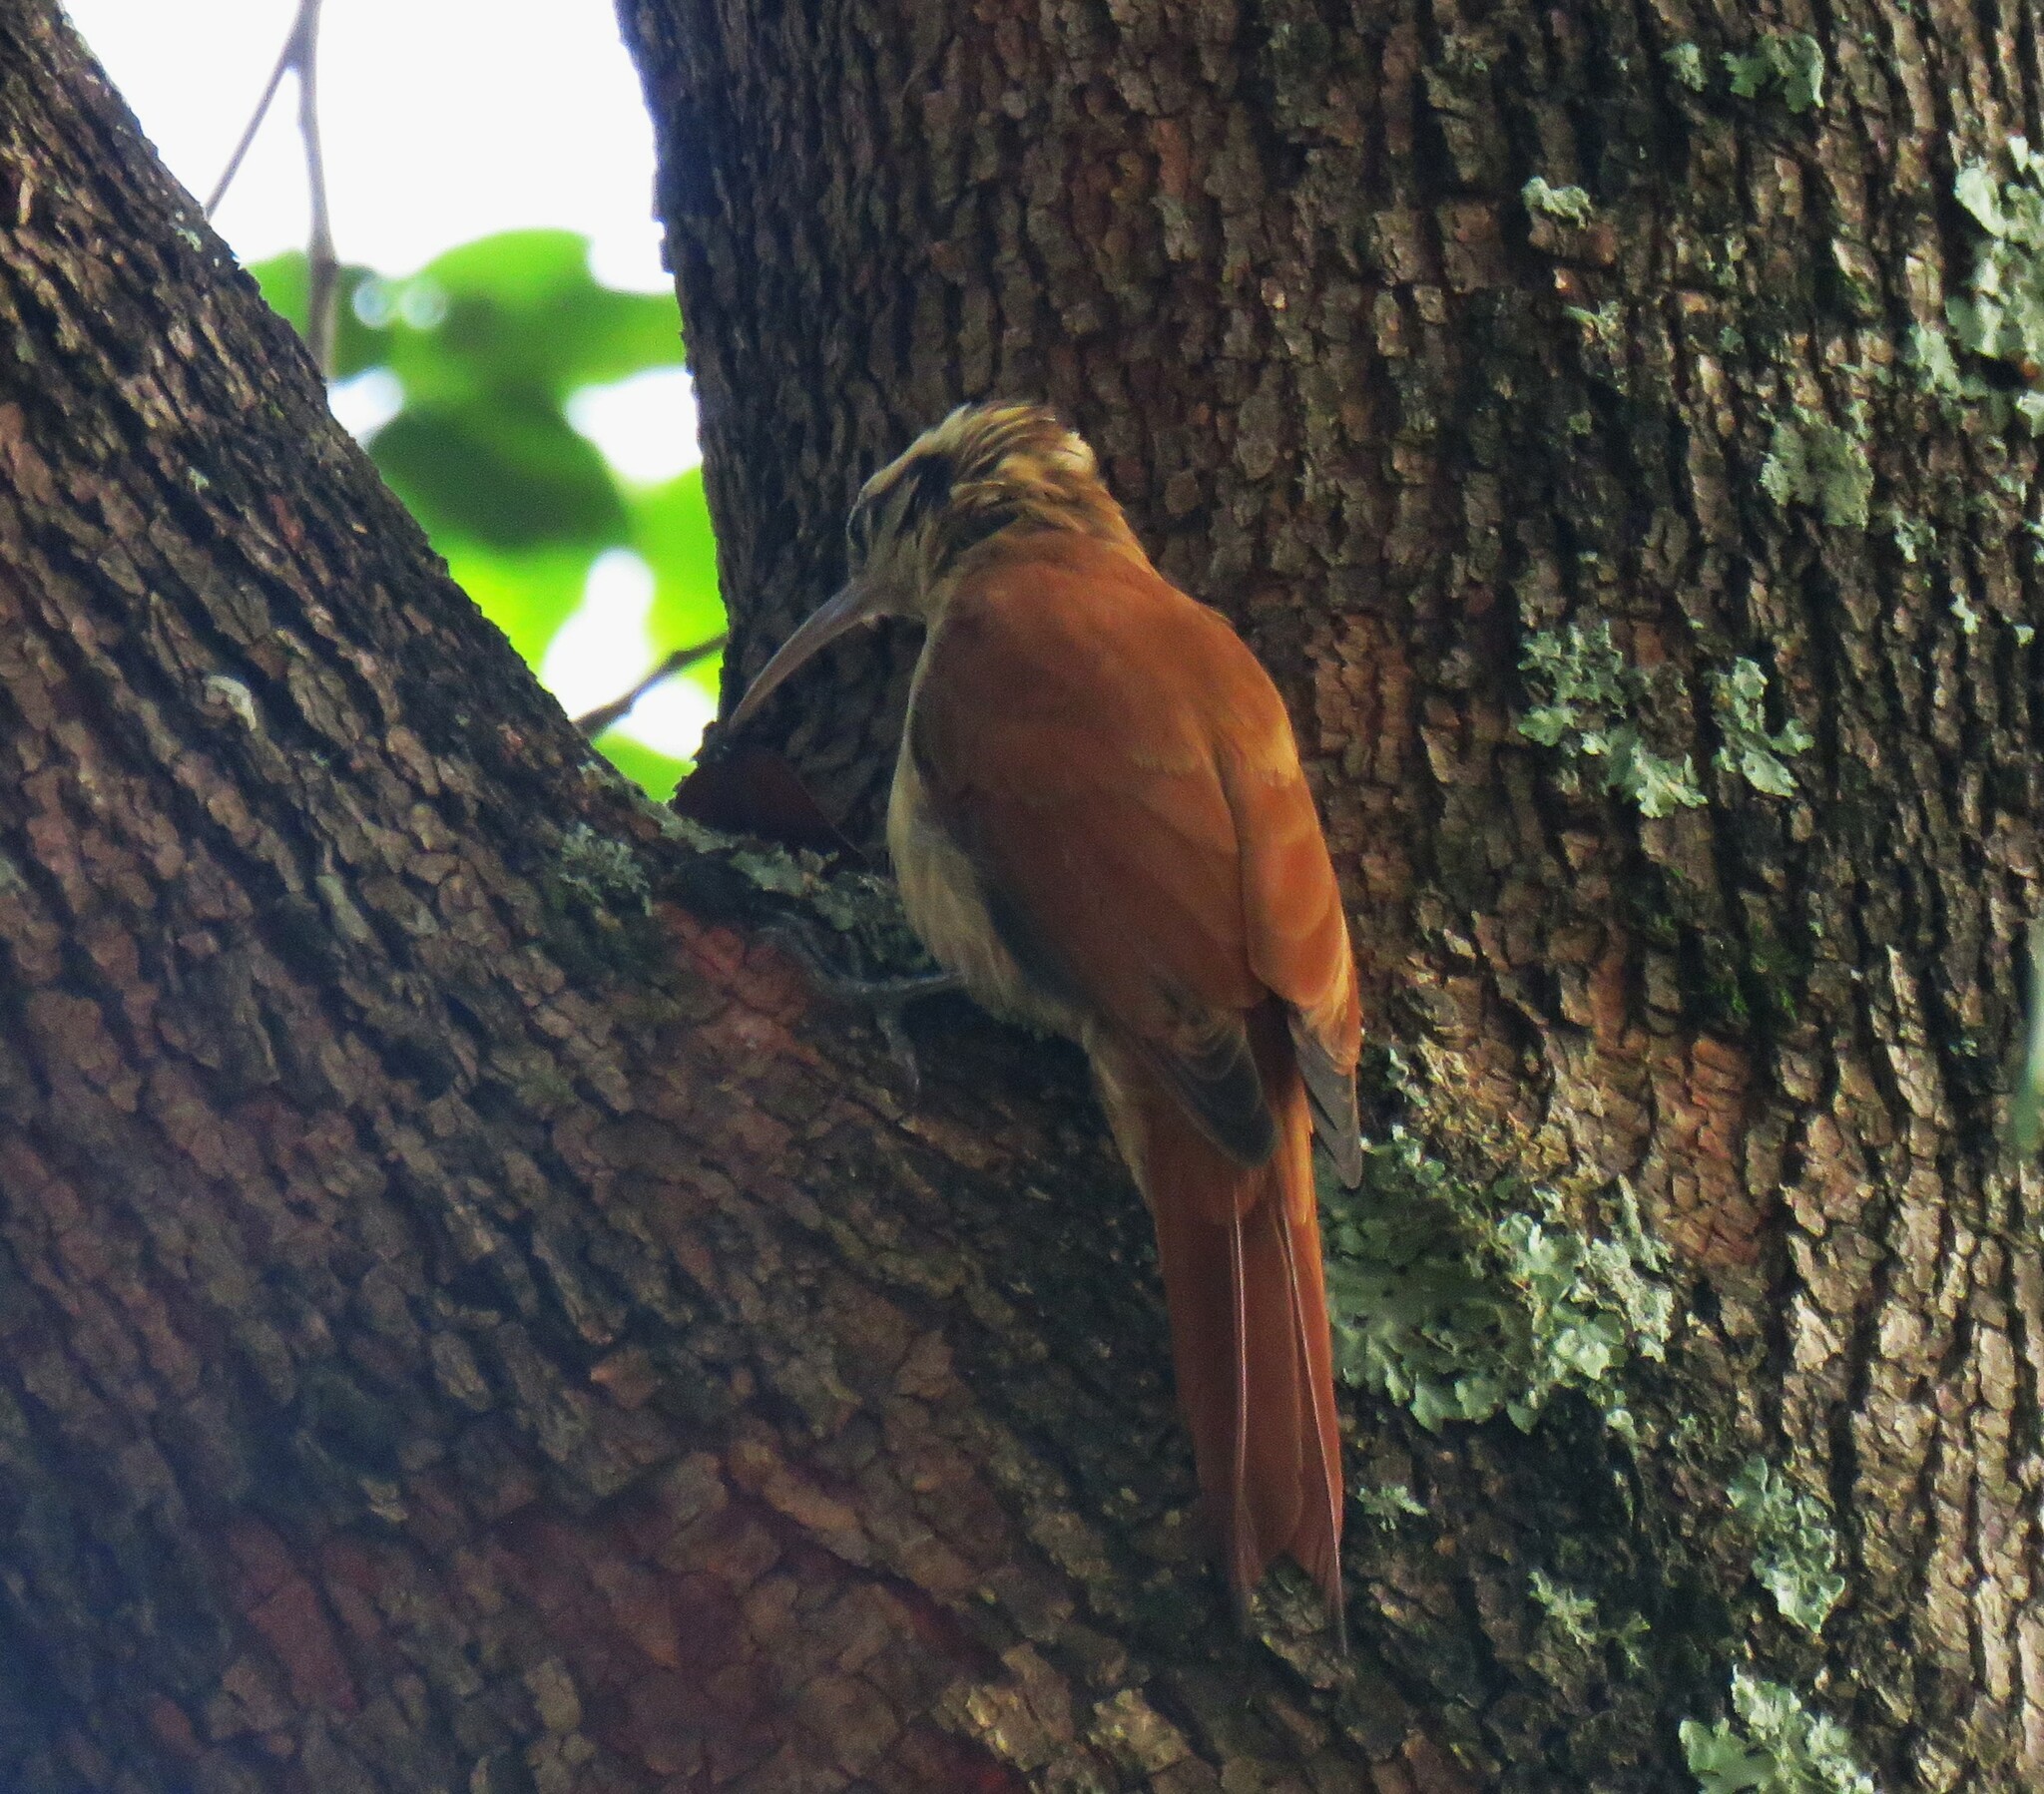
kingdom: Animalia
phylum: Chordata
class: Aves
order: Passeriformes
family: Furnariidae
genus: Lepidocolaptes
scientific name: Lepidocolaptes angustirostris
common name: Narrow-billed woodcreeper
